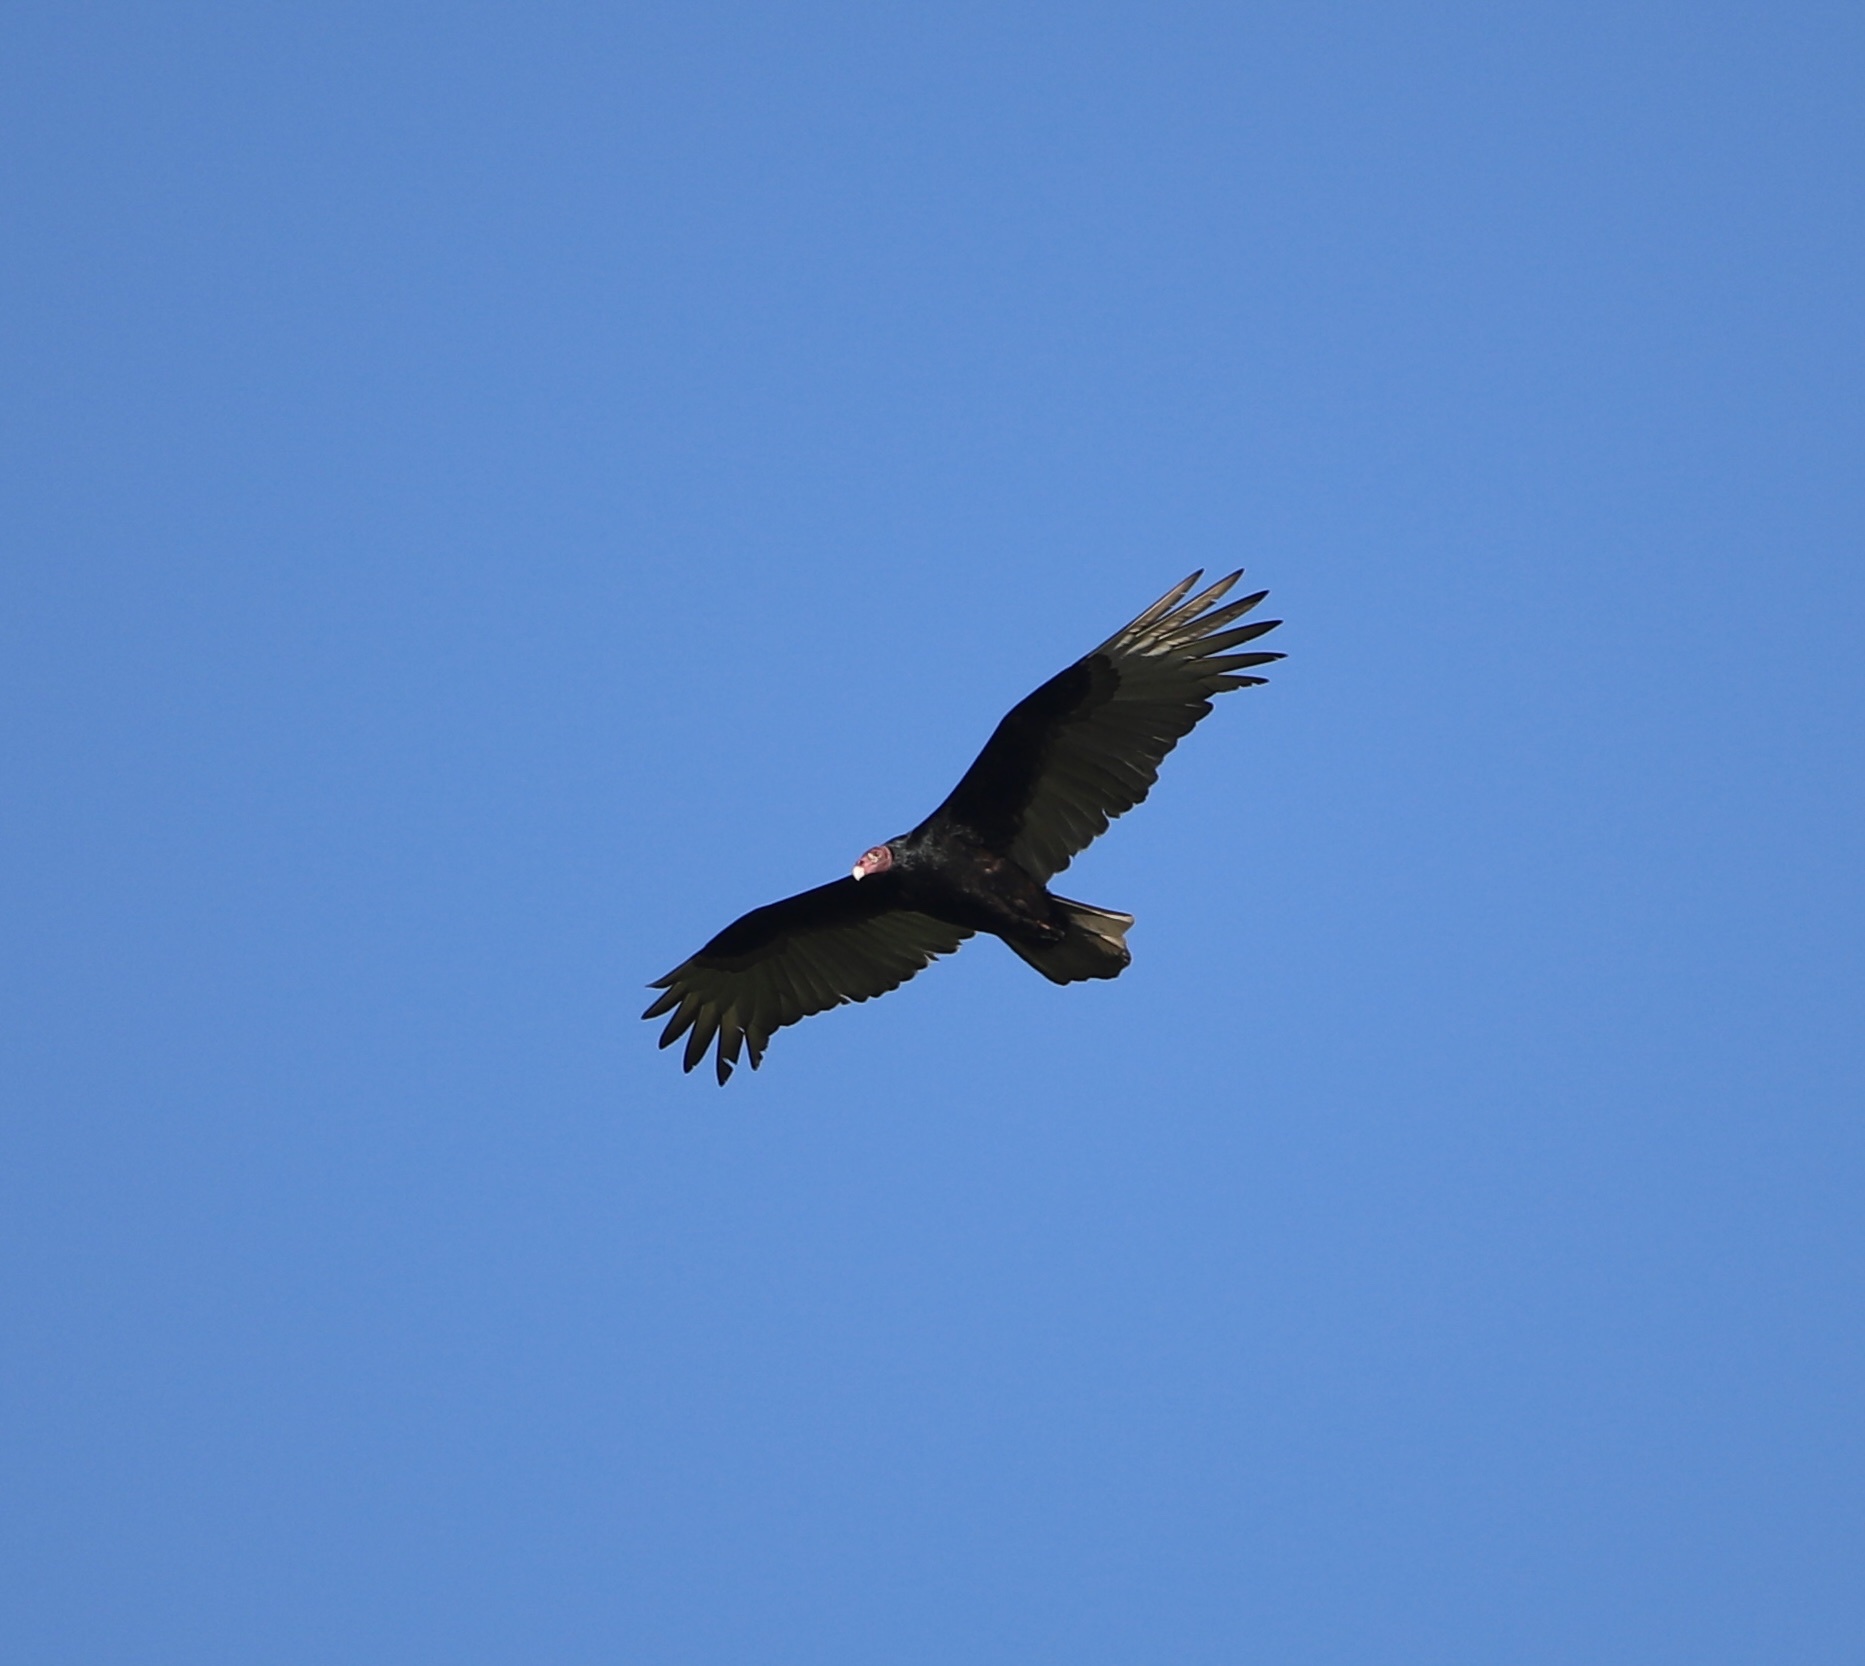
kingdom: Animalia
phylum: Chordata
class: Aves
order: Accipitriformes
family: Cathartidae
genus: Cathartes
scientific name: Cathartes aura
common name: Turkey vulture
